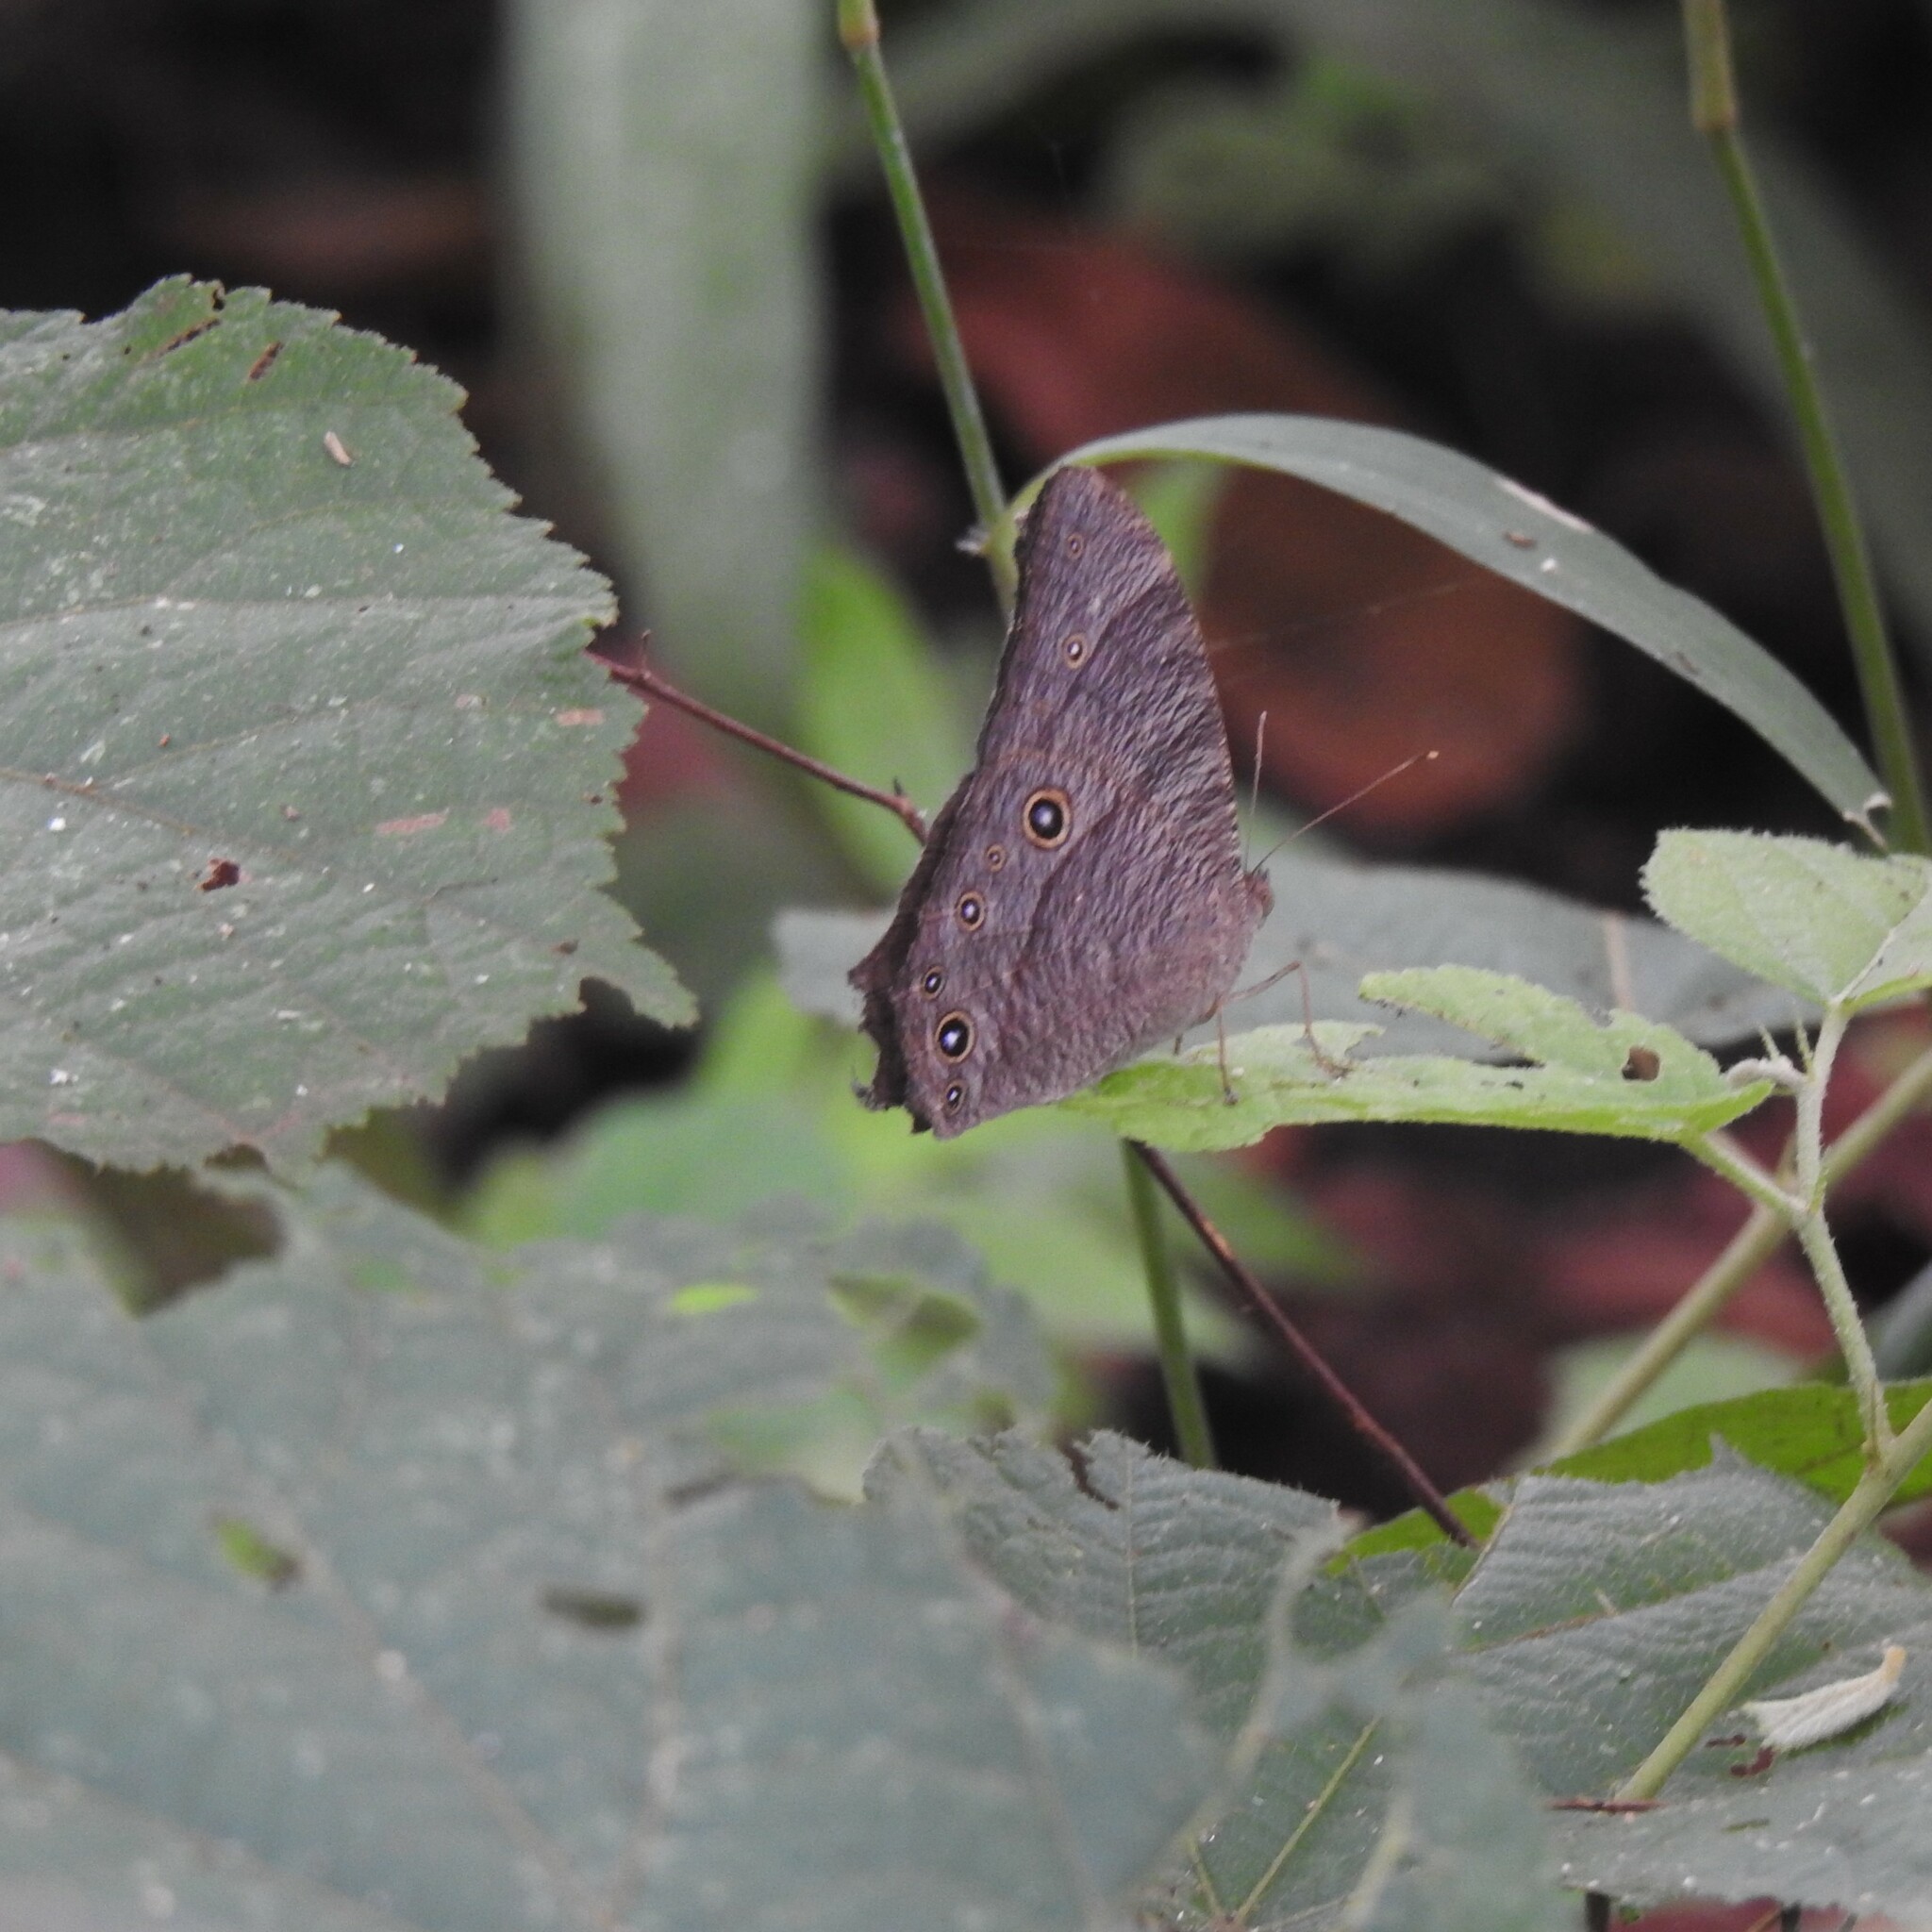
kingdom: Animalia
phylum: Arthropoda
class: Insecta
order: Lepidoptera
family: Nymphalidae
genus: Melanitis
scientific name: Melanitis leda
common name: Twilight brown
